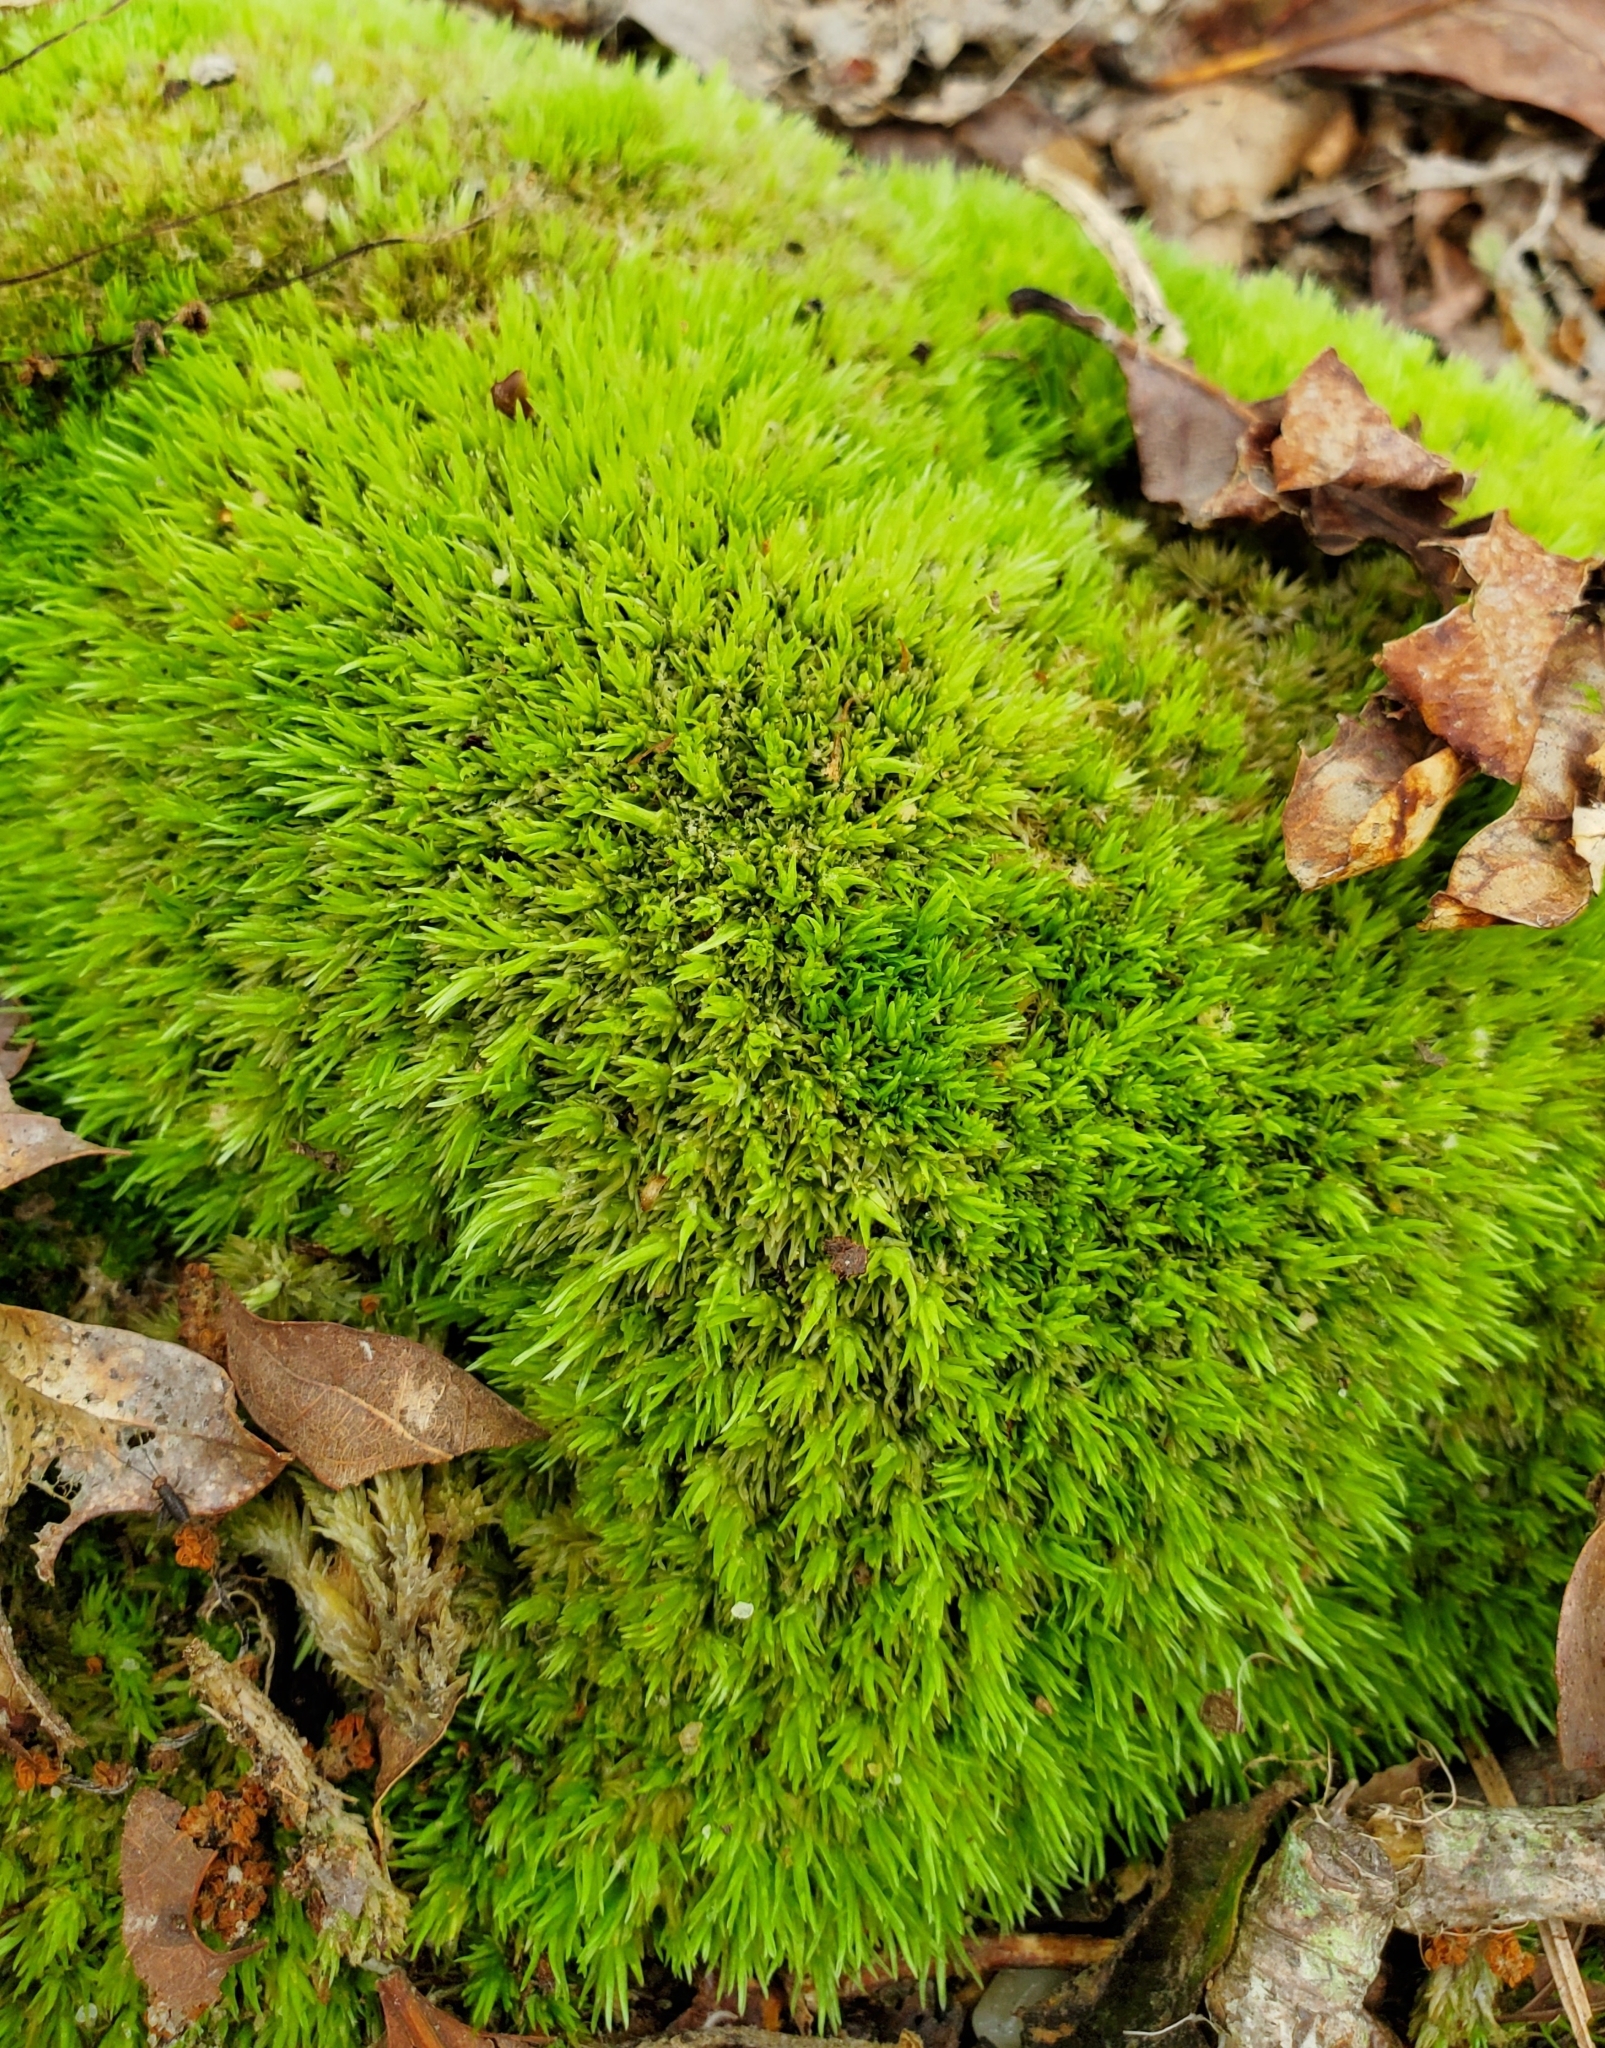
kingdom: Plantae
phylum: Bryophyta
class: Bryopsida
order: Dicranales
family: Leucobryaceae
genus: Leucobryum
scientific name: Leucobryum glaucum
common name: Large white-moss
